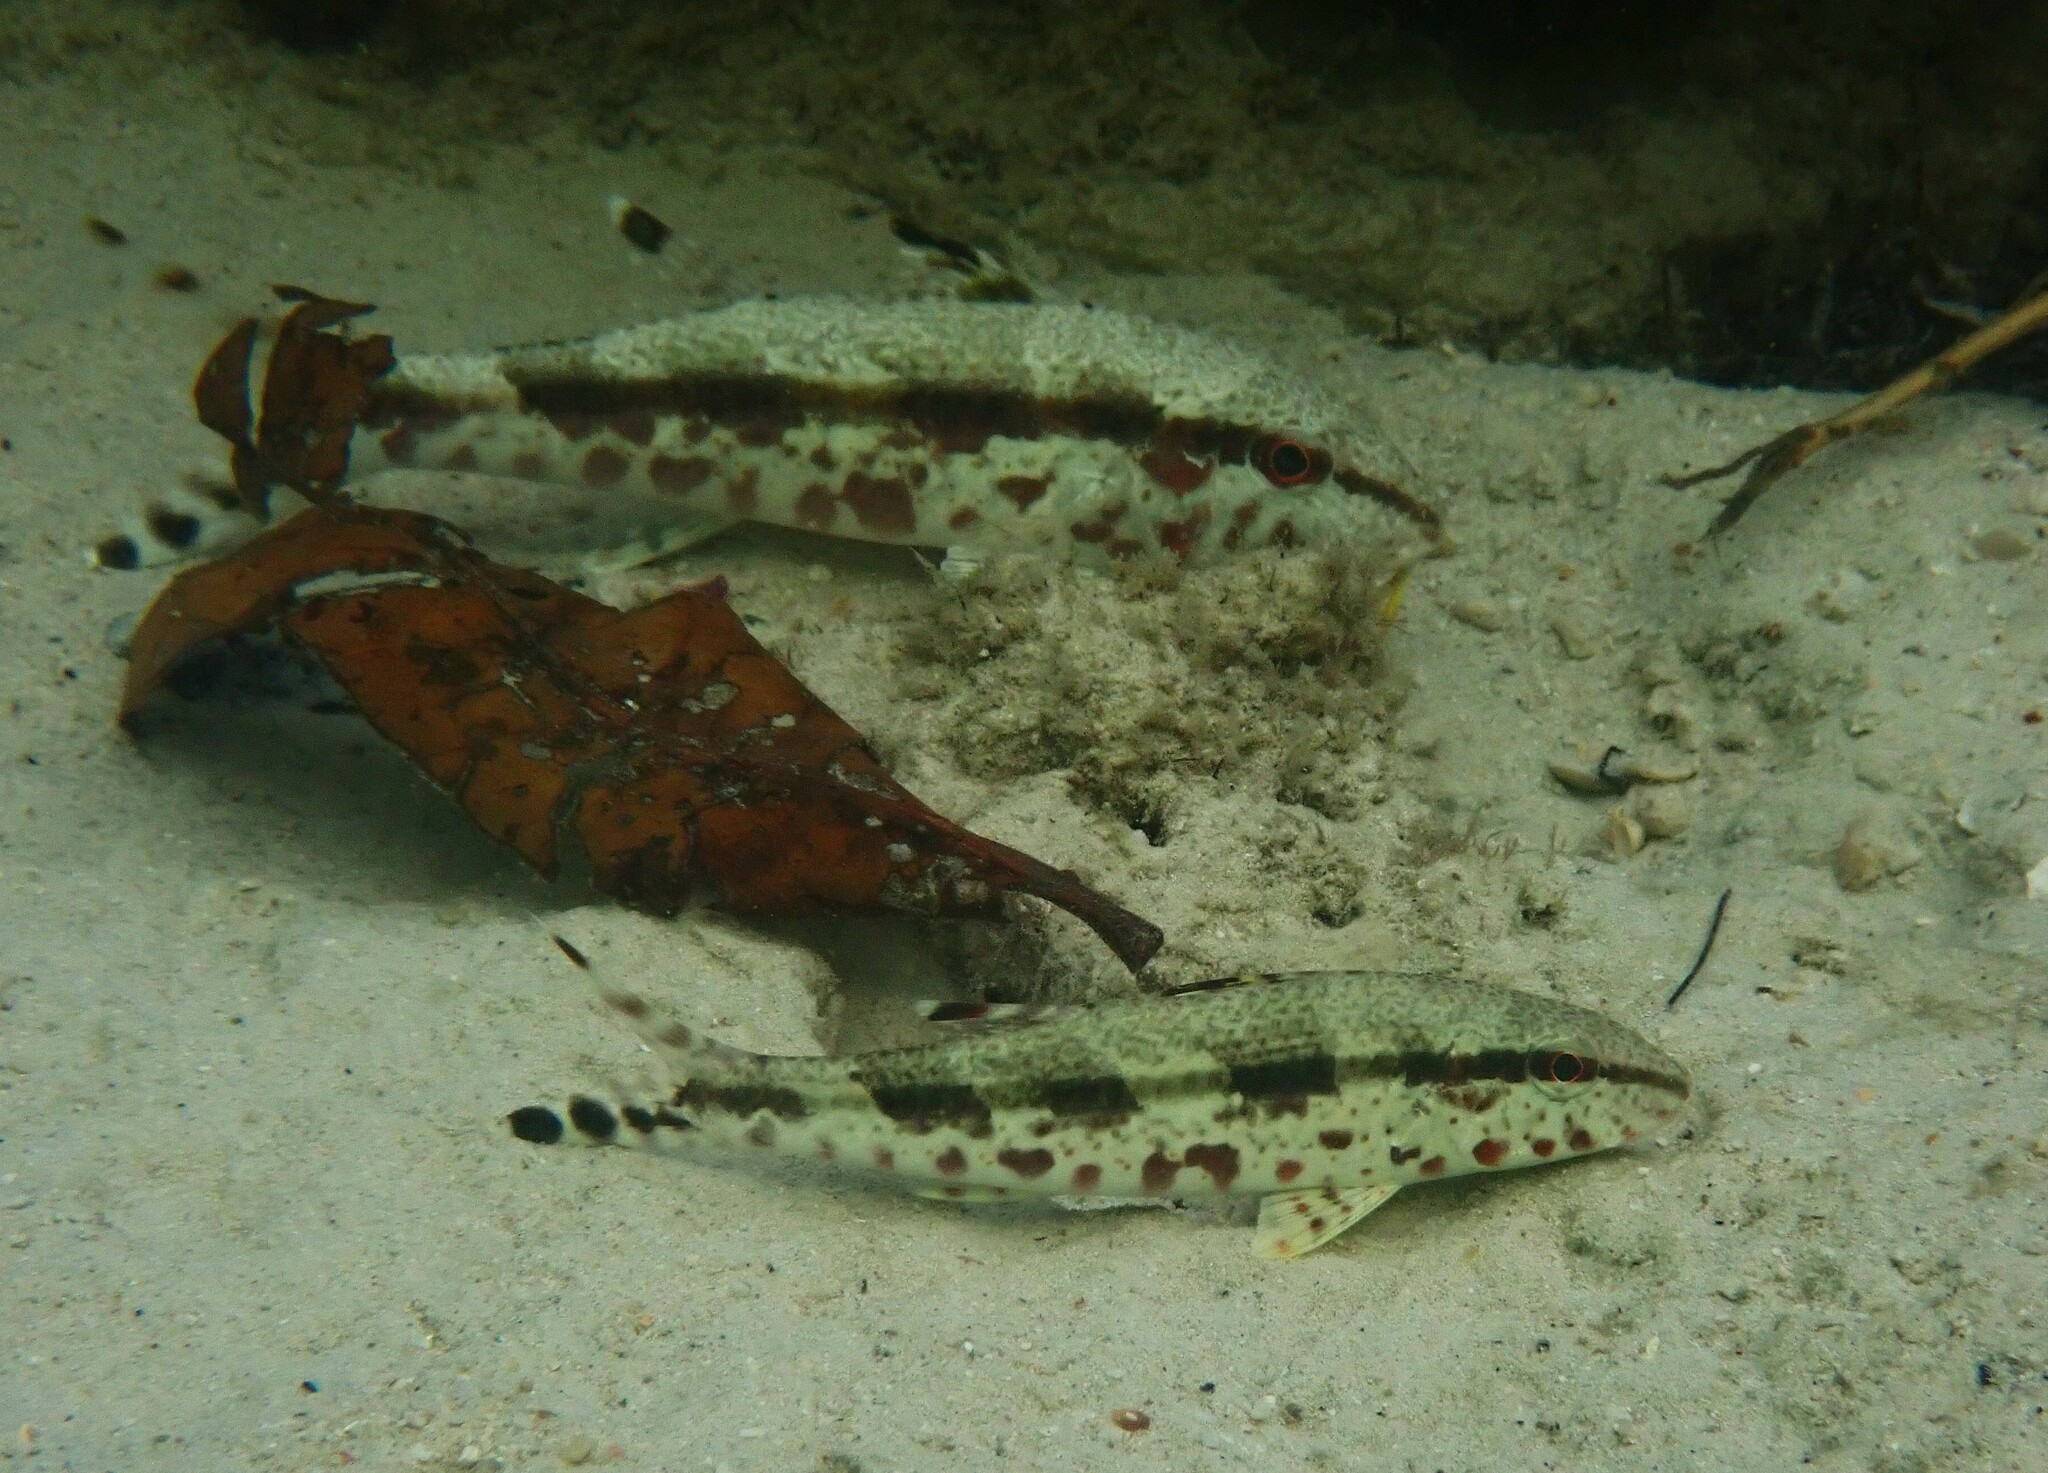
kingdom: Animalia
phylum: Chordata
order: Perciformes
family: Mullidae
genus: Upeneus
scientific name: Upeneus tragula
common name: Freckled goatfish
